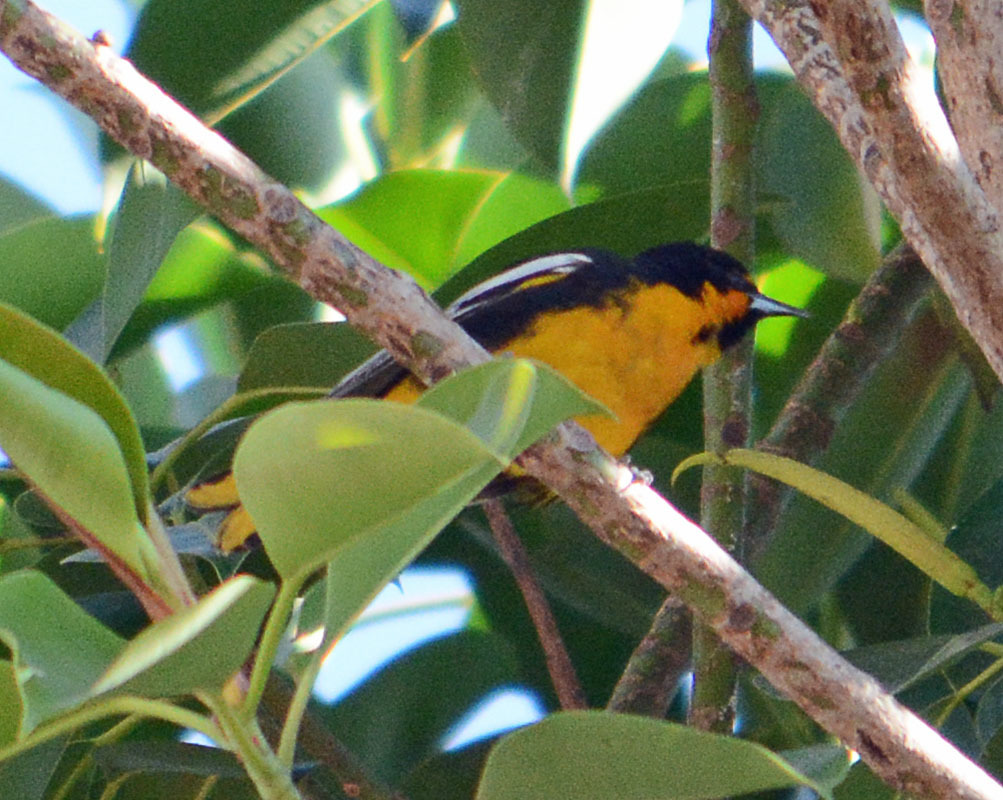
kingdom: Animalia
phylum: Chordata
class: Aves
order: Passeriformes
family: Icteridae
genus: Icterus
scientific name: Icterus abeillei
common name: Black-backed oriole
